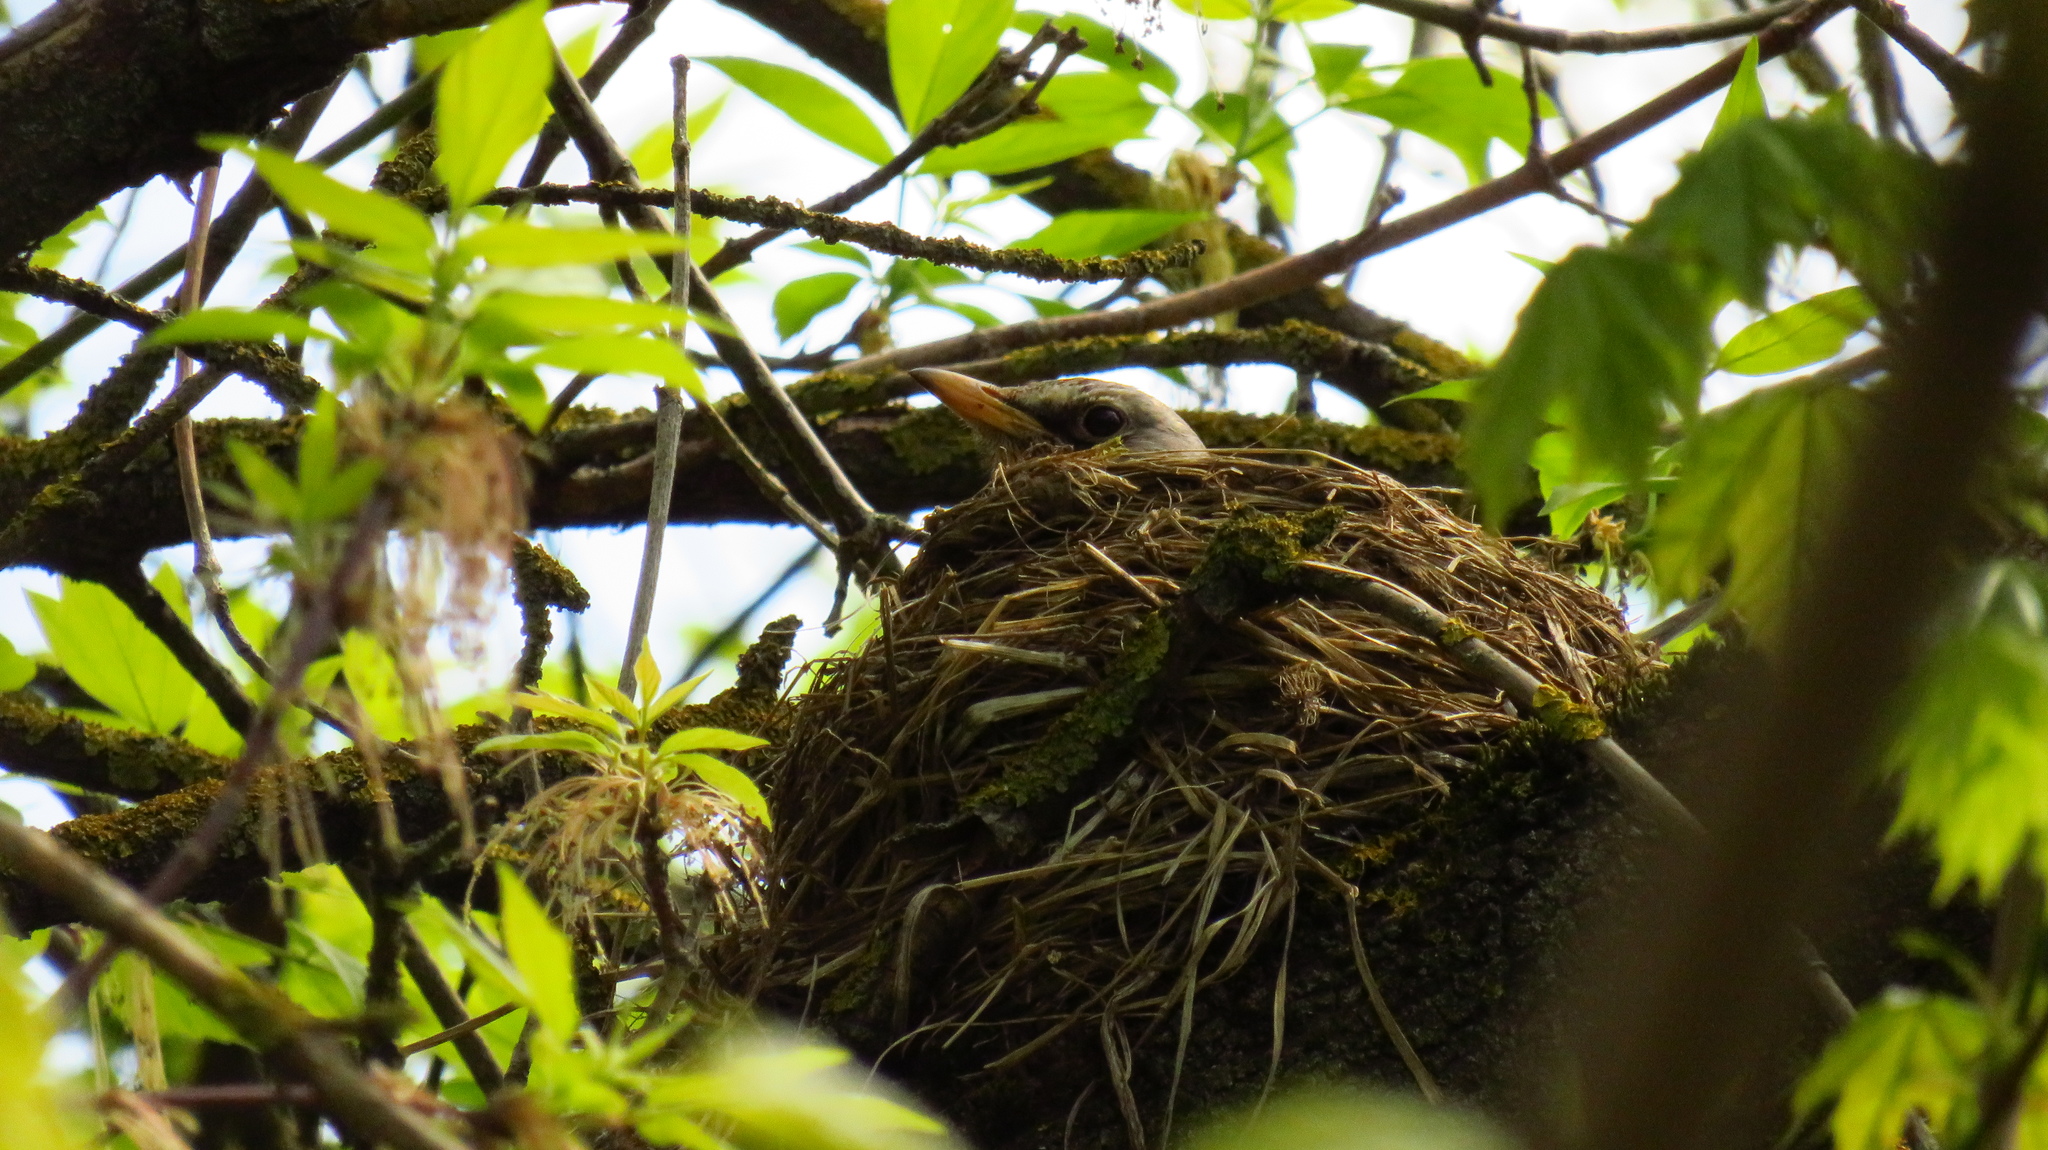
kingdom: Animalia
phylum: Chordata
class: Aves
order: Passeriformes
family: Turdidae
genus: Turdus
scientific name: Turdus pilaris
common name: Fieldfare
